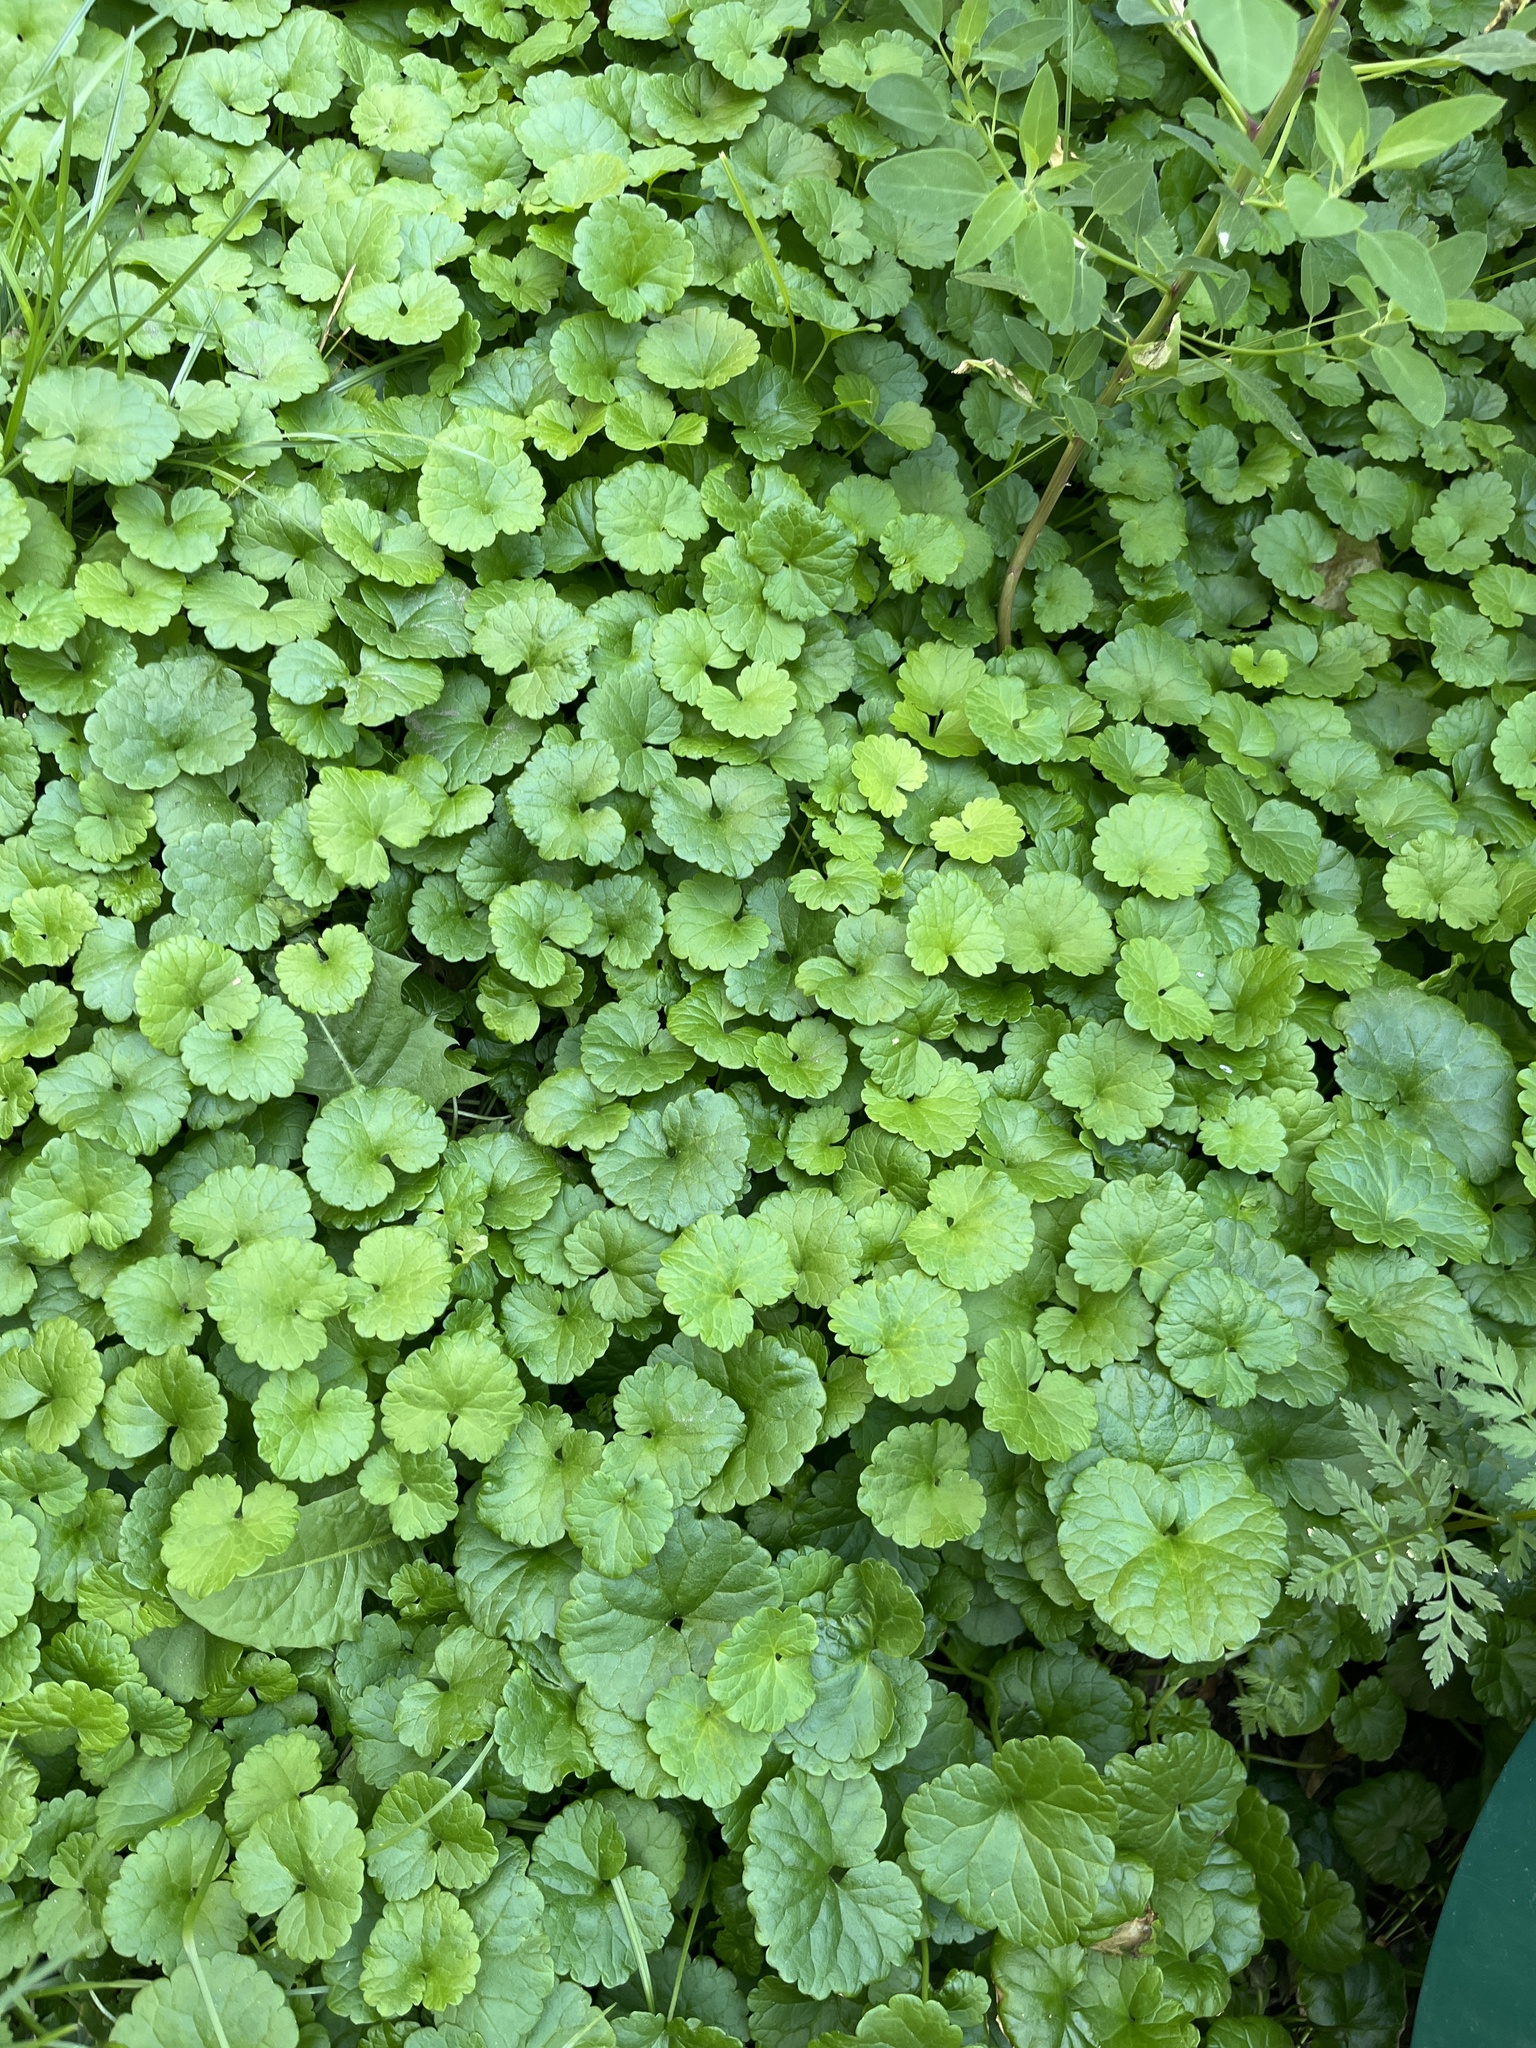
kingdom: Plantae
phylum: Tracheophyta
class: Magnoliopsida
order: Lamiales
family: Lamiaceae
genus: Glechoma
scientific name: Glechoma hederacea
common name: Ground ivy
